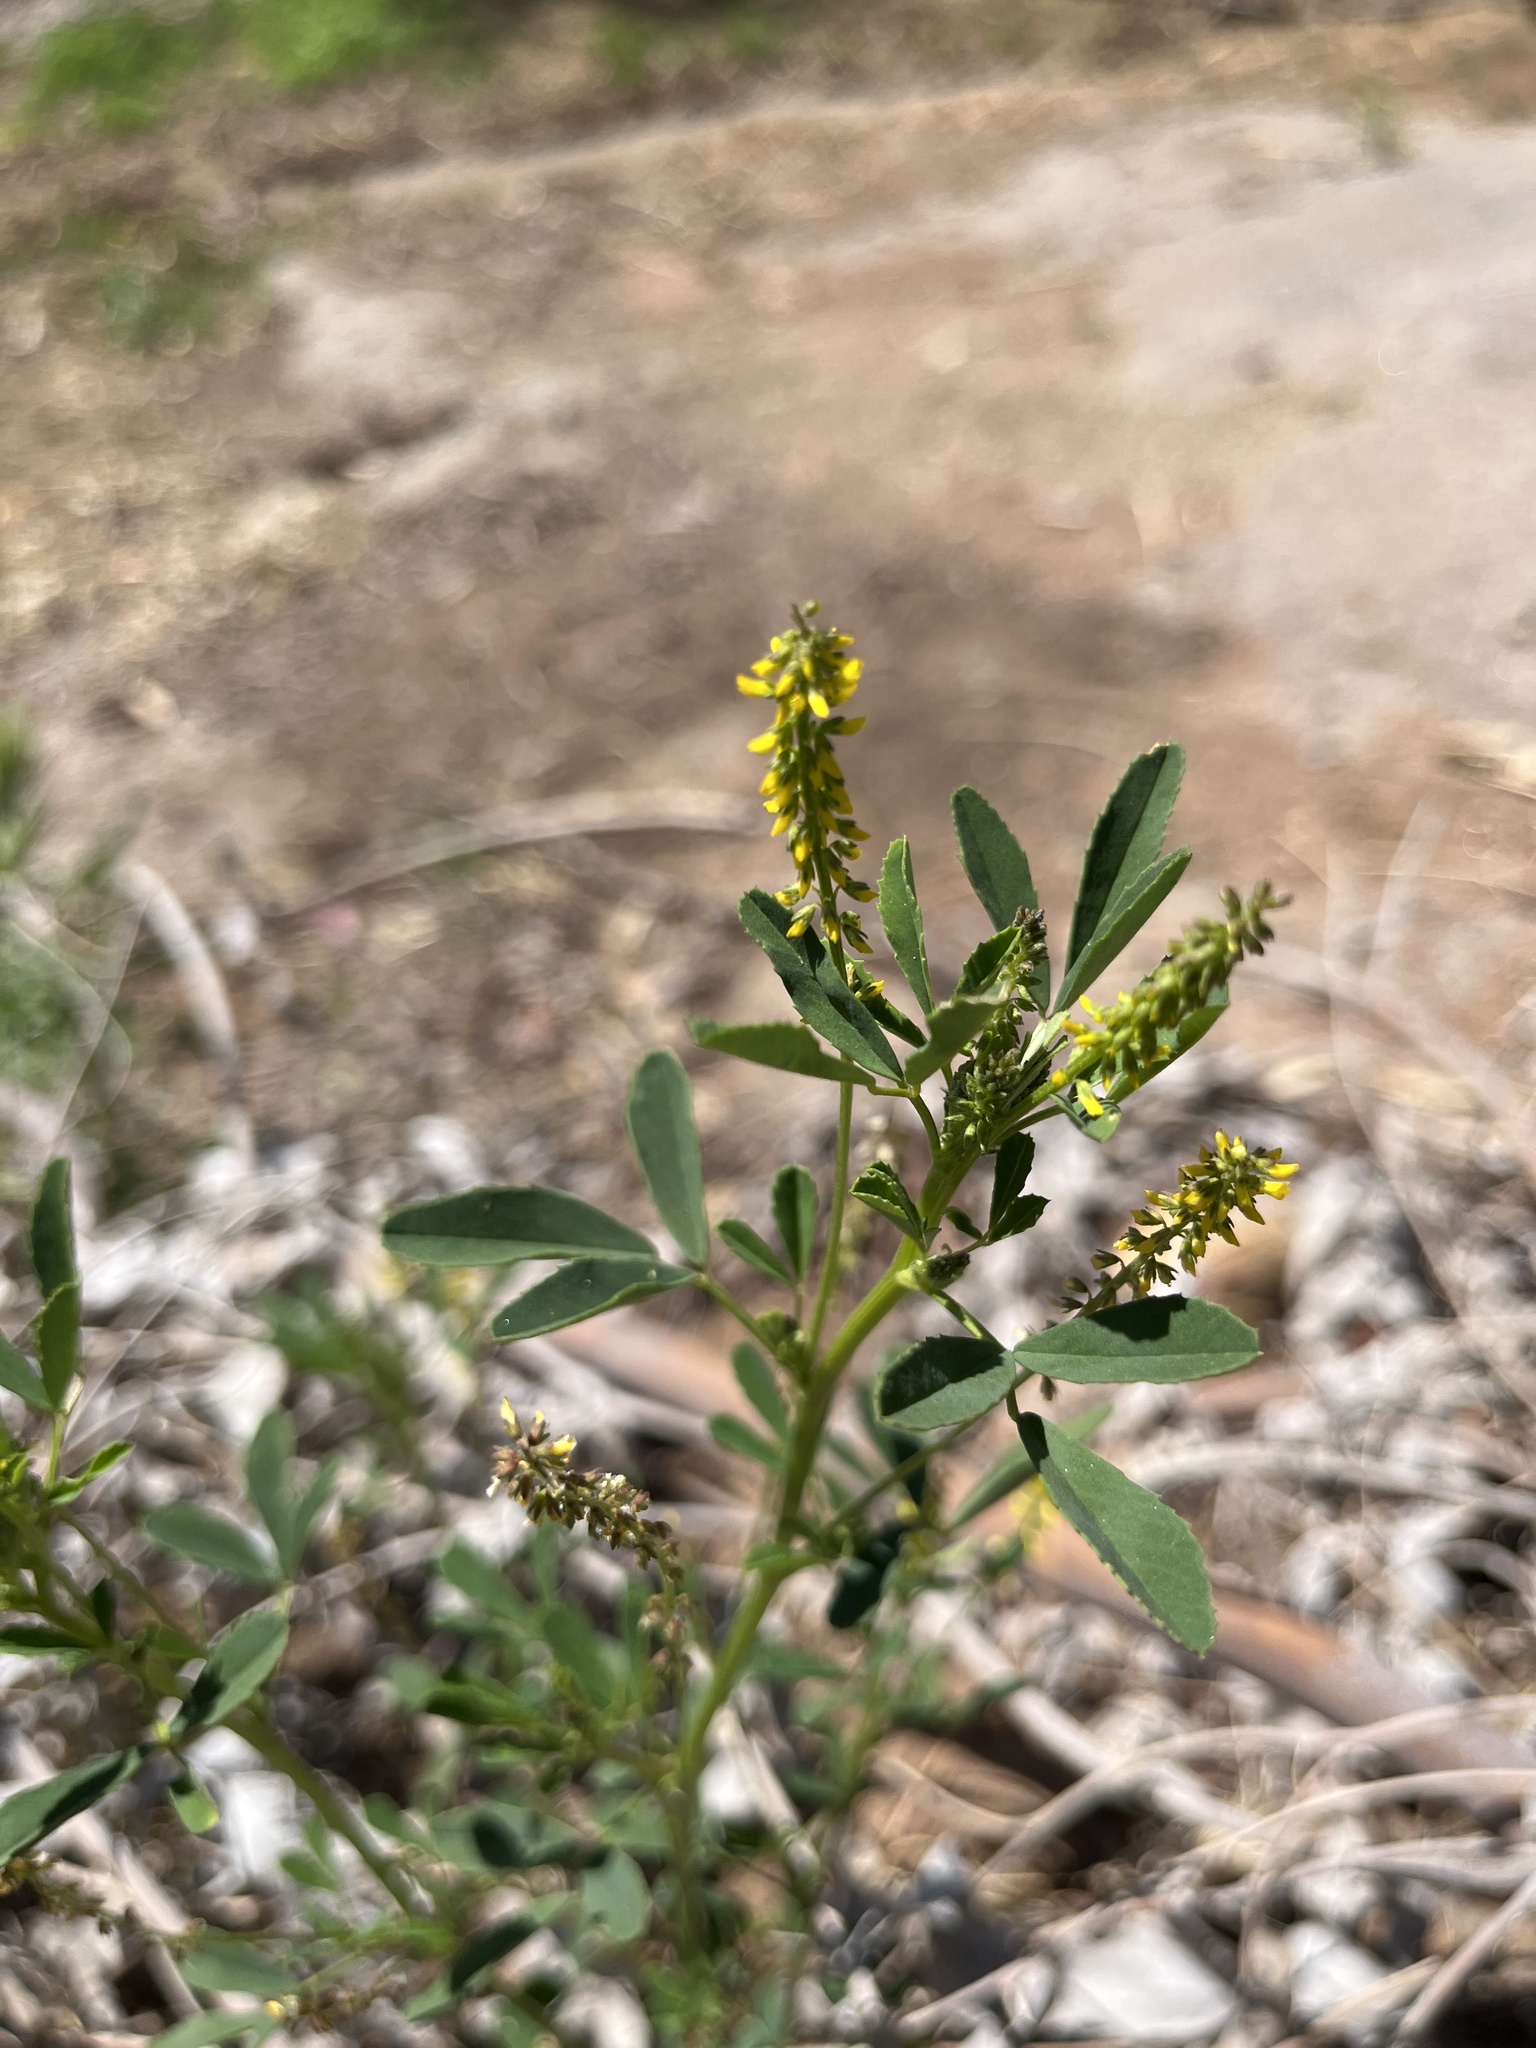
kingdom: Plantae
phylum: Tracheophyta
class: Magnoliopsida
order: Fabales
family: Fabaceae
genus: Melilotus
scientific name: Melilotus indicus
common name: Small melilot
